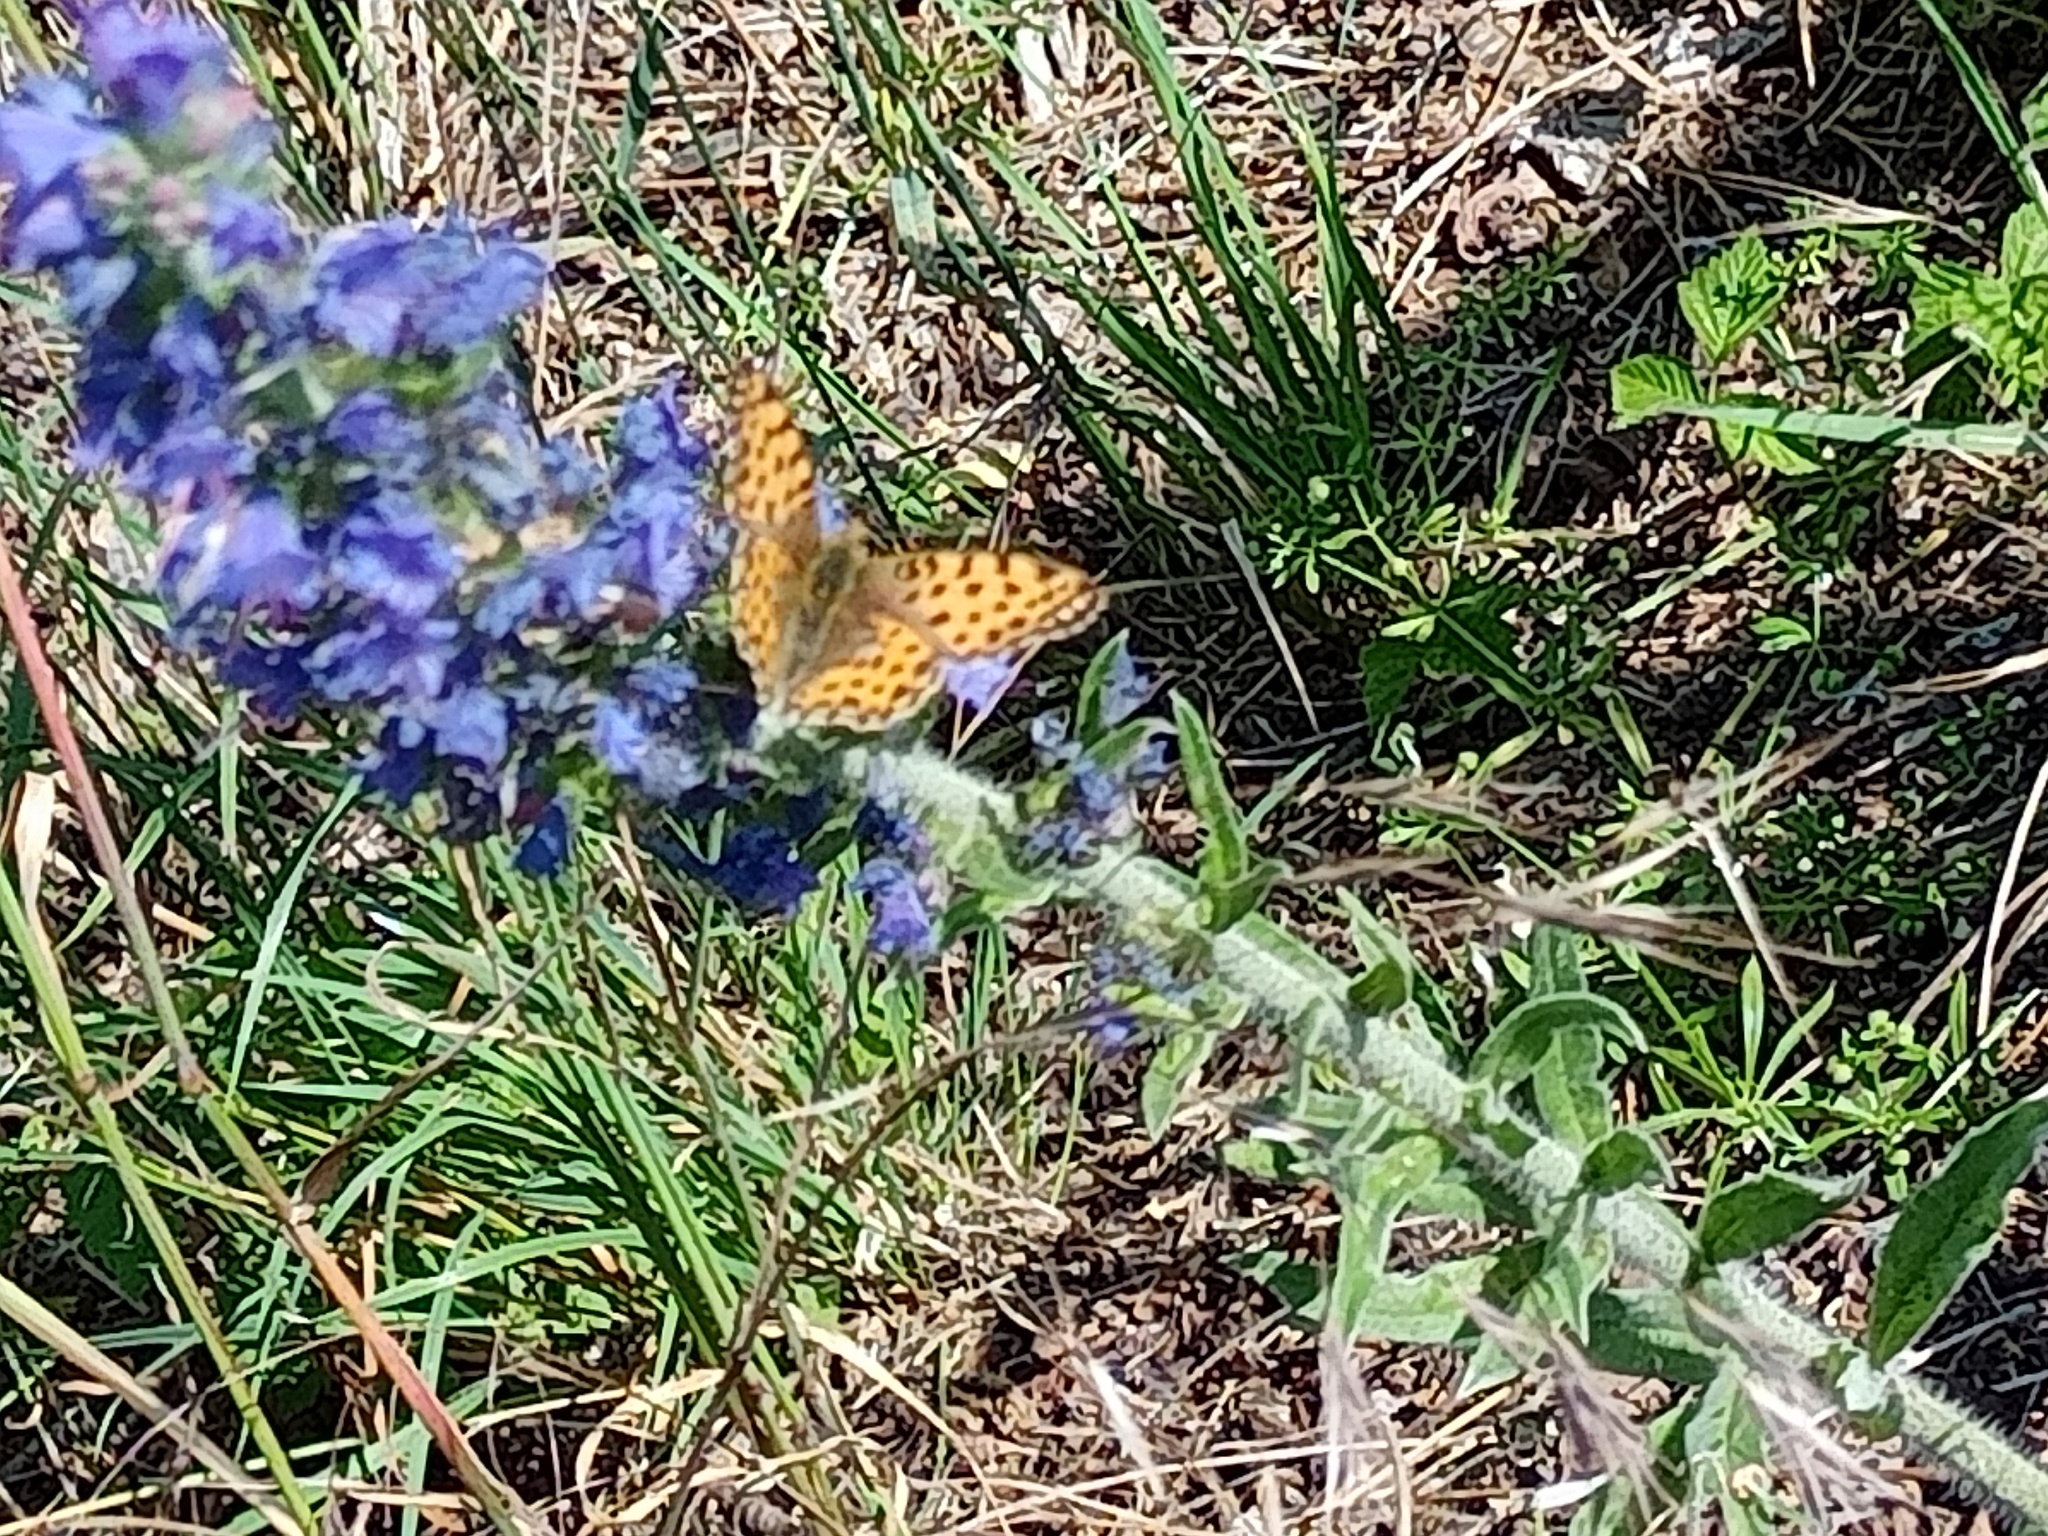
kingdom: Animalia
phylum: Arthropoda
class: Insecta
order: Lepidoptera
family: Nymphalidae
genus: Issoria
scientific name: Issoria lathonia
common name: Queen of spain fritillary
